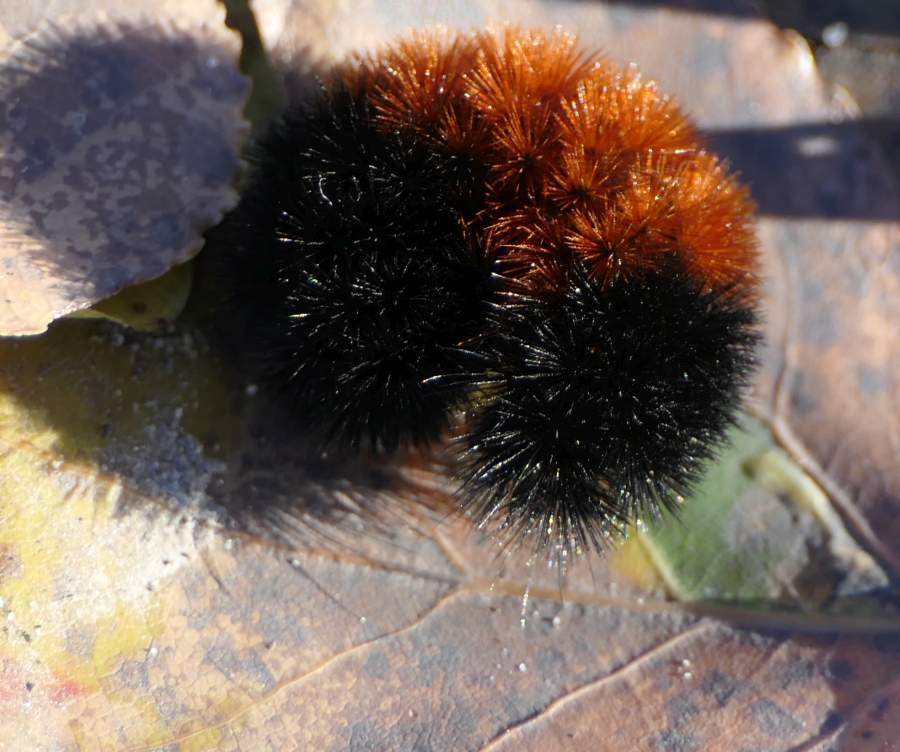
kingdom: Animalia
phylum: Arthropoda
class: Insecta
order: Lepidoptera
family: Erebidae
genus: Pyrrharctia
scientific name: Pyrrharctia isabella
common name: Isabella tiger moth
